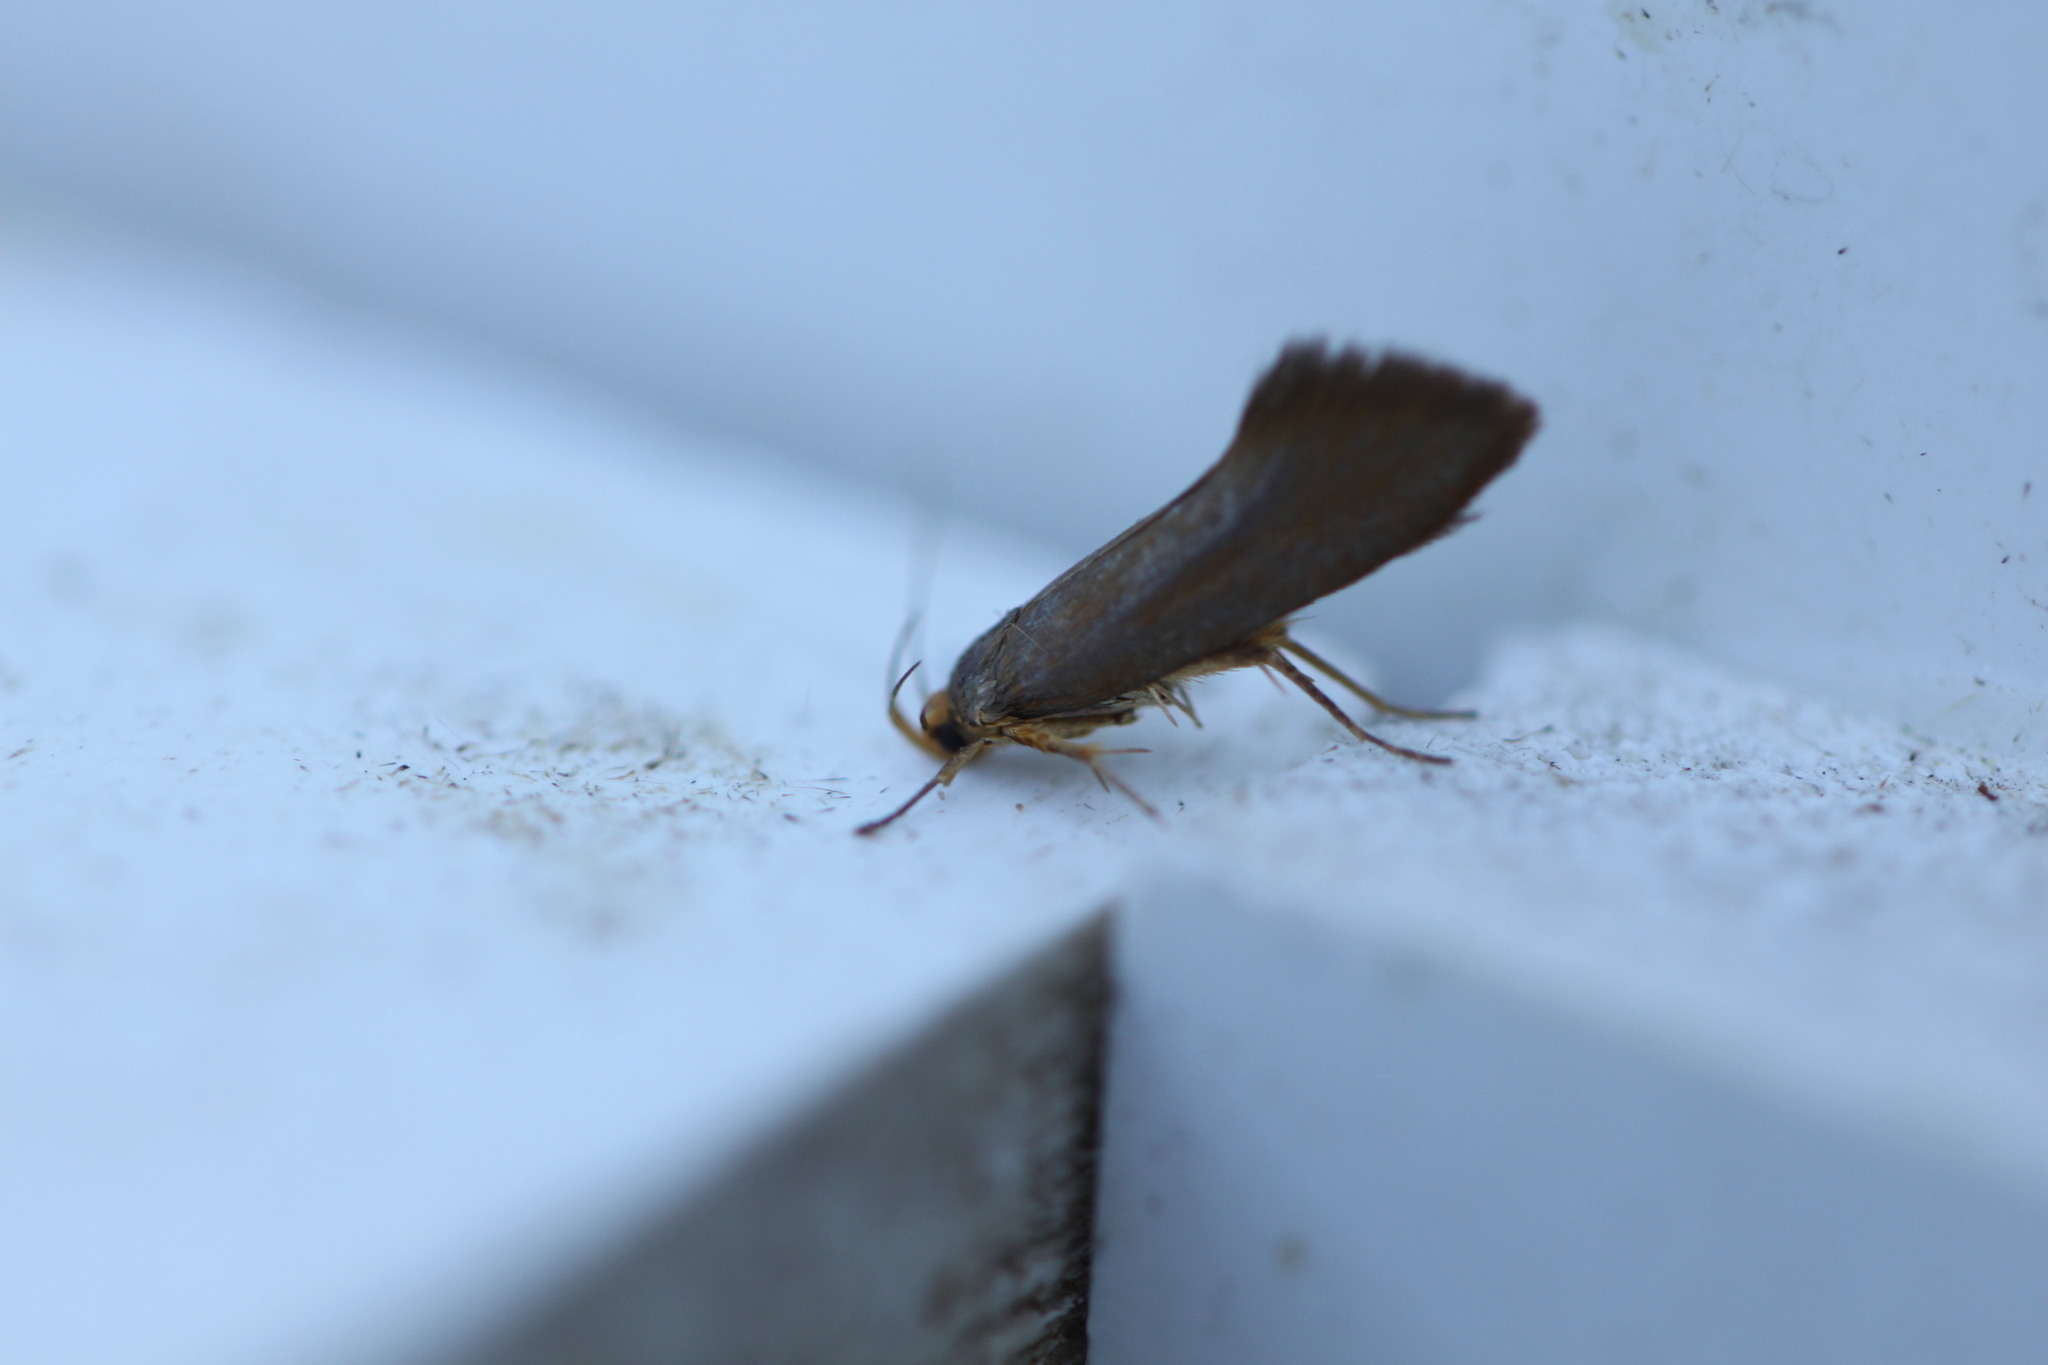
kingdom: Animalia
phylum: Arthropoda
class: Insecta
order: Lepidoptera
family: Oecophoridae
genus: Borkhausenia
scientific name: Borkhausenia Crassa unitella
